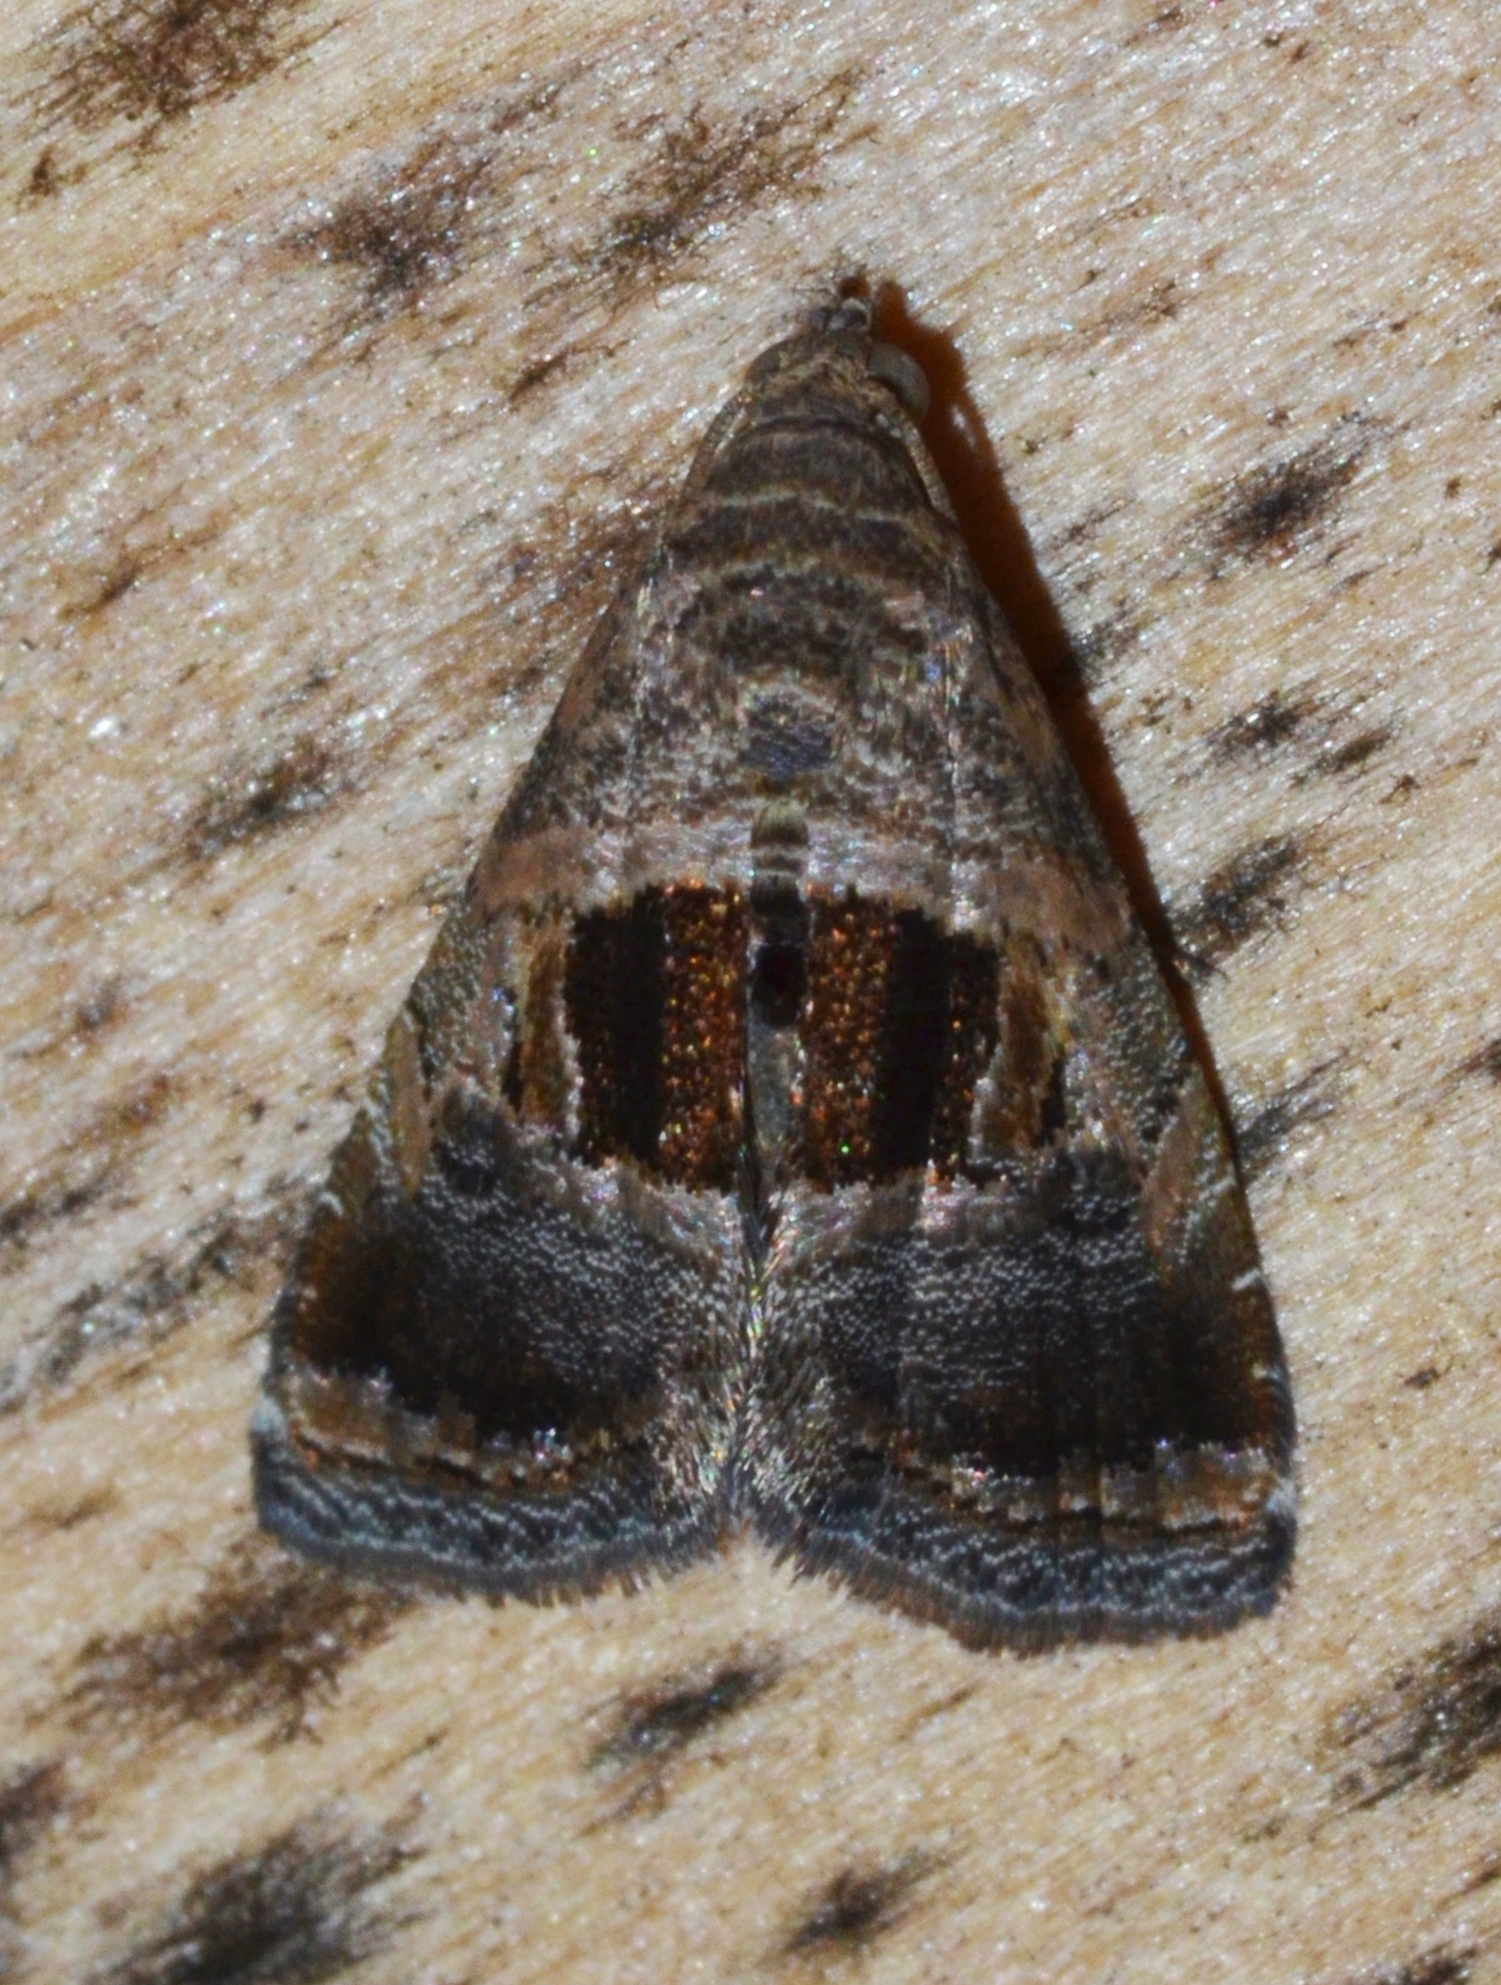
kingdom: Animalia
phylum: Arthropoda
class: Insecta
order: Lepidoptera
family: Noctuidae
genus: Tripudia
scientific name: Tripudia rectangula
